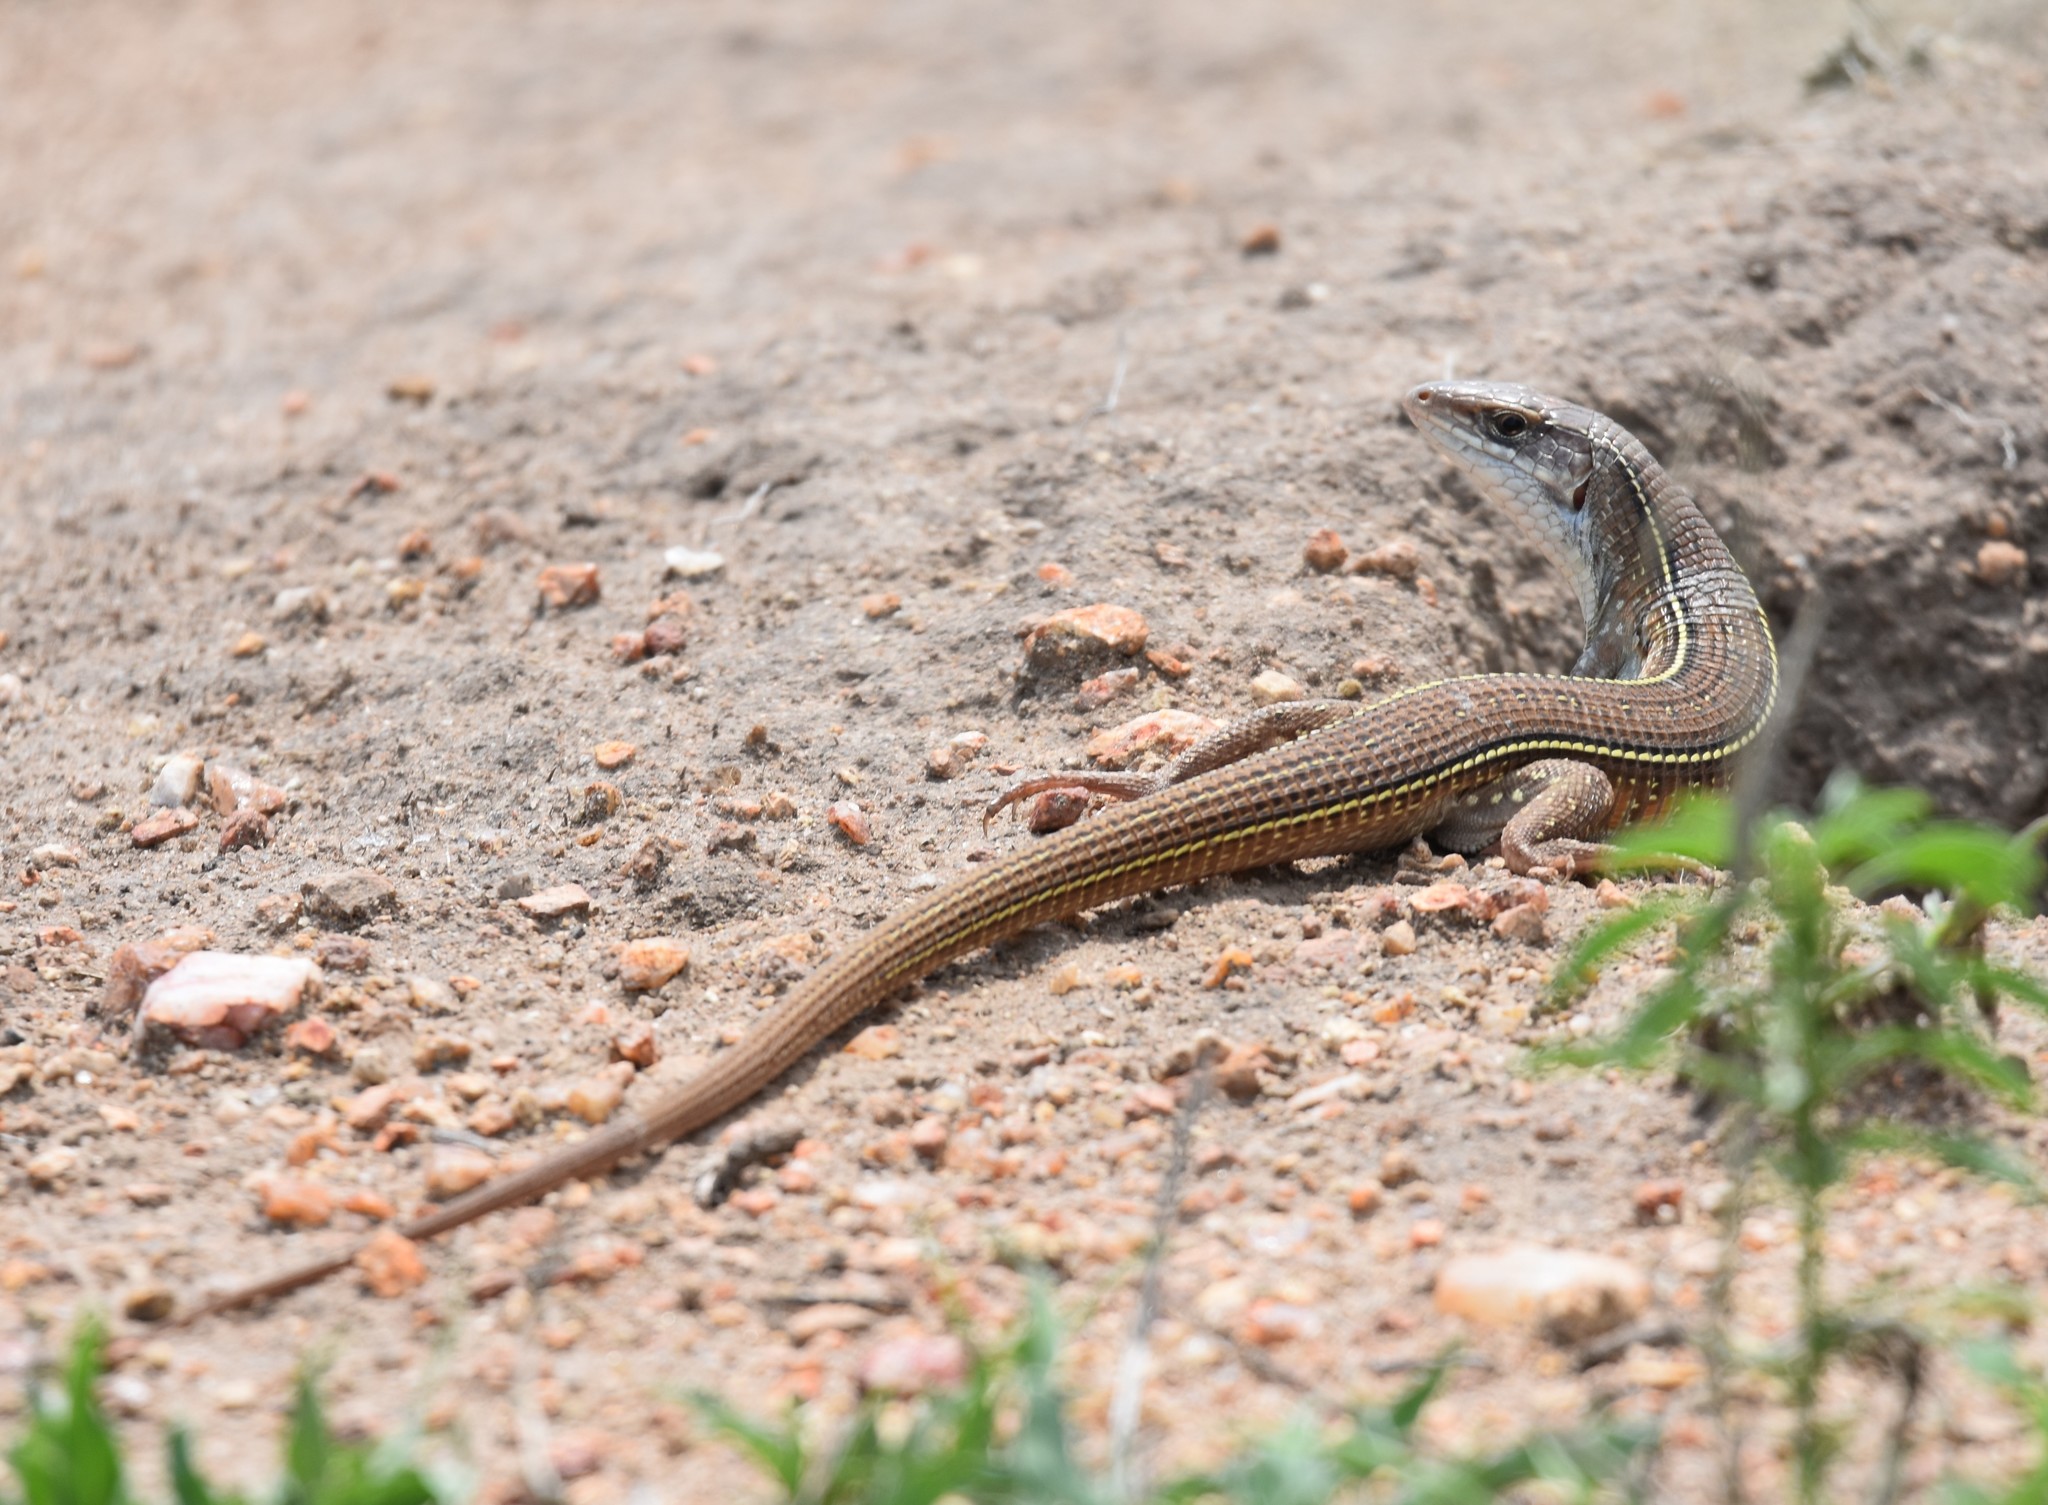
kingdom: Animalia
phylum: Chordata
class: Squamata
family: Gerrhosauridae
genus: Gerrhosaurus
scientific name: Gerrhosaurus flavigularis
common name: Yellow-throated plated lizard
